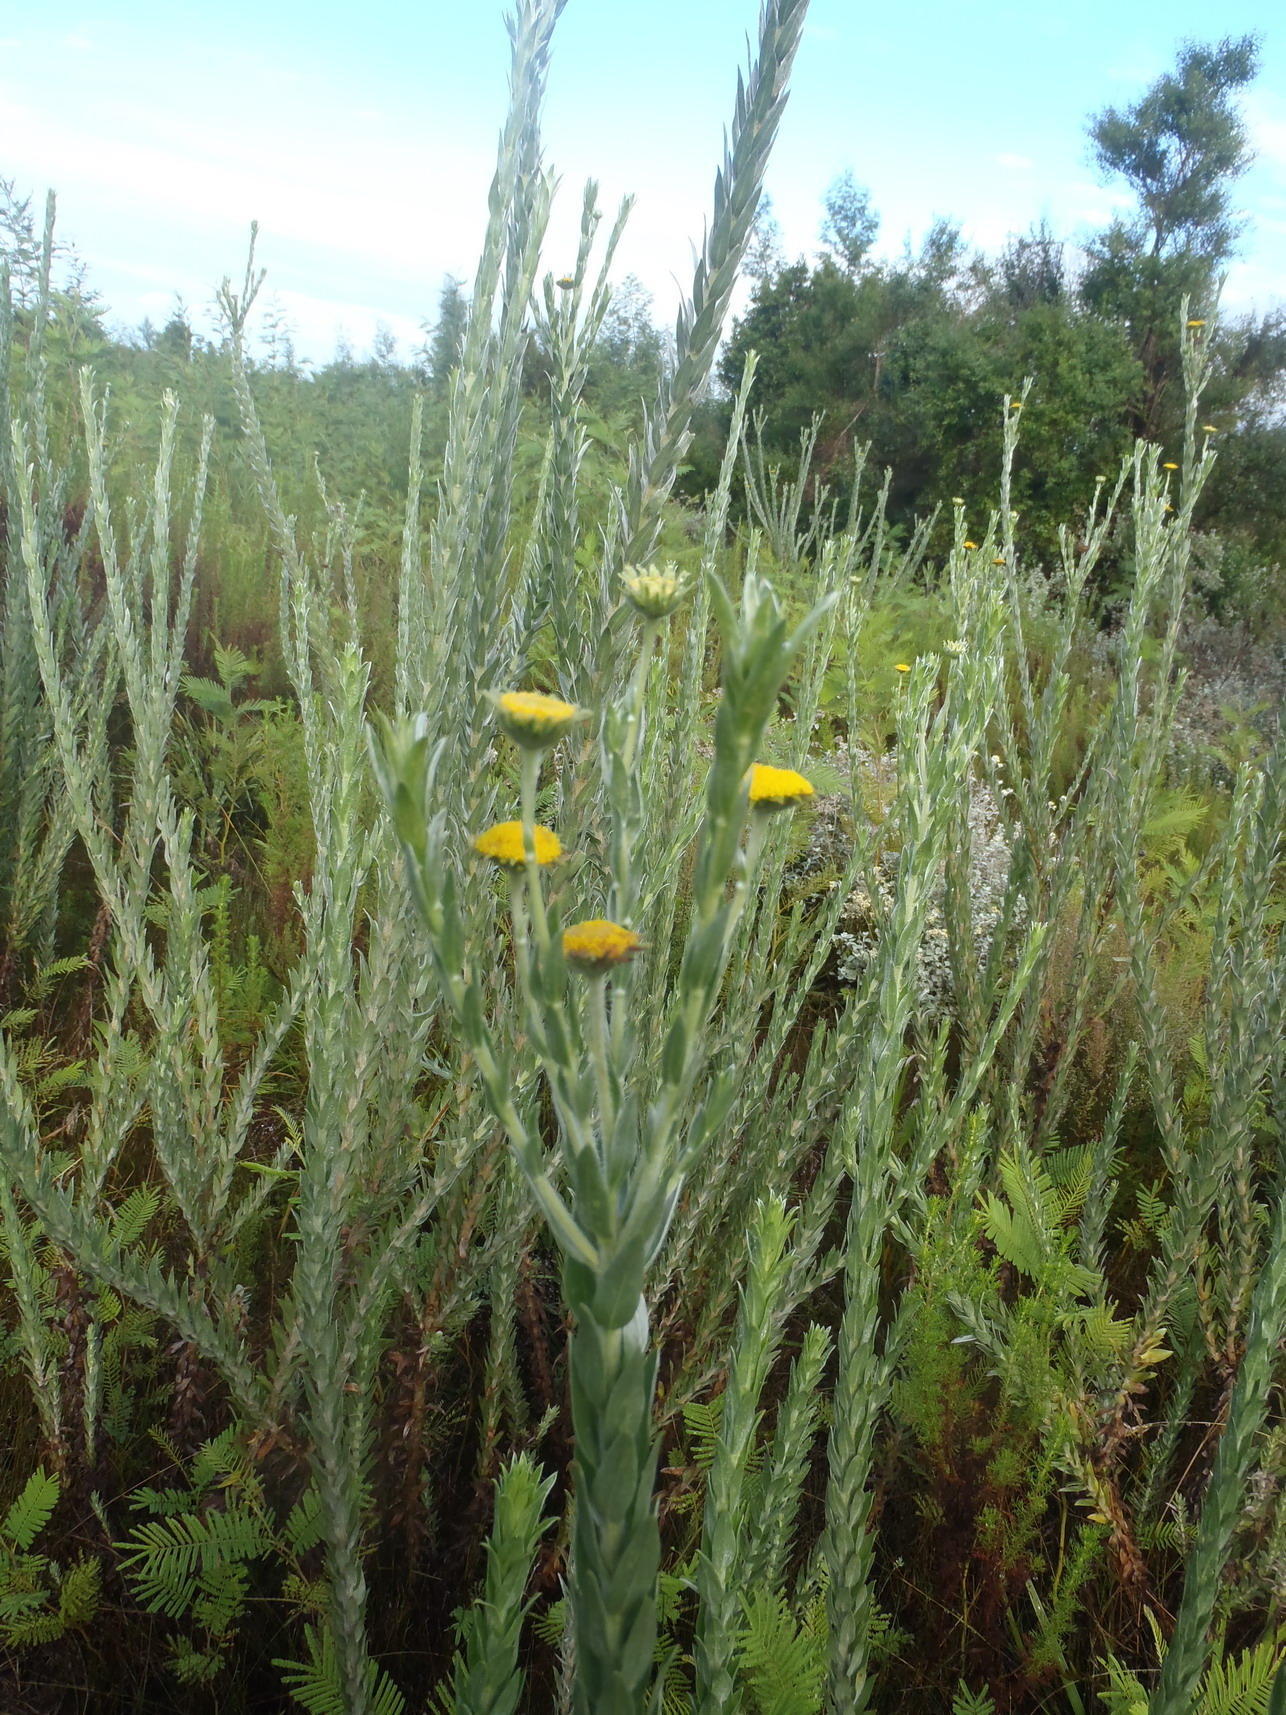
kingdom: Plantae
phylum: Tracheophyta
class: Magnoliopsida
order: Asterales
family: Asteraceae
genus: Schistostephium
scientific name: Schistostephium umbellatum
